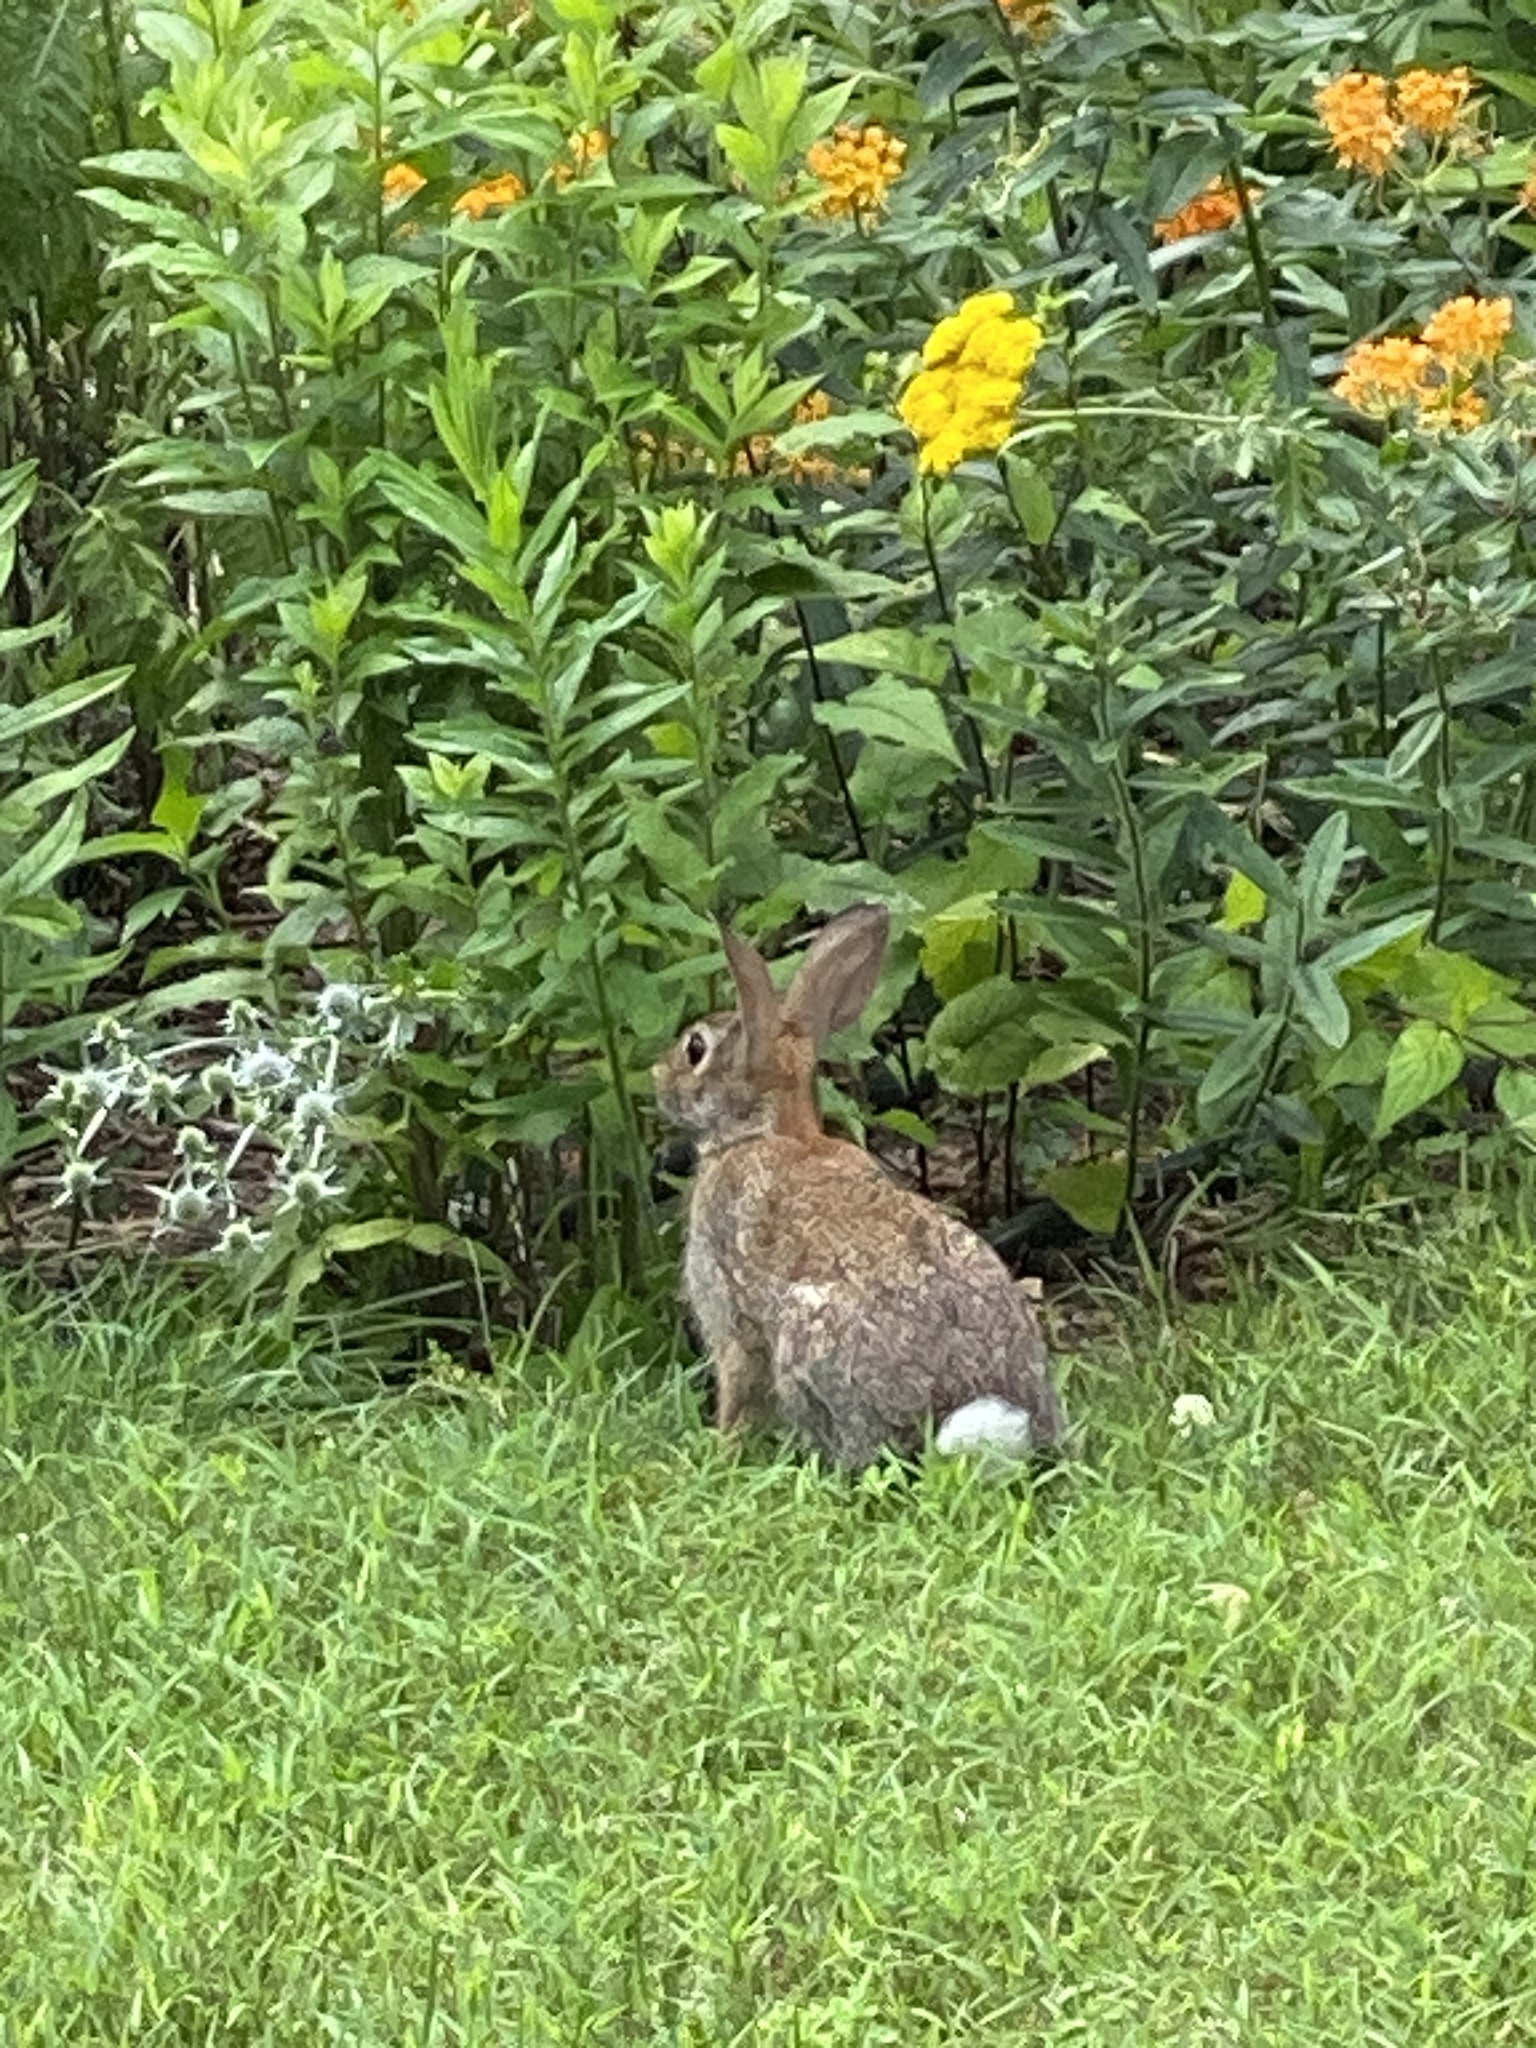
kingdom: Animalia
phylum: Chordata
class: Mammalia
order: Lagomorpha
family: Leporidae
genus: Sylvilagus
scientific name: Sylvilagus floridanus
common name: Eastern cottontail
